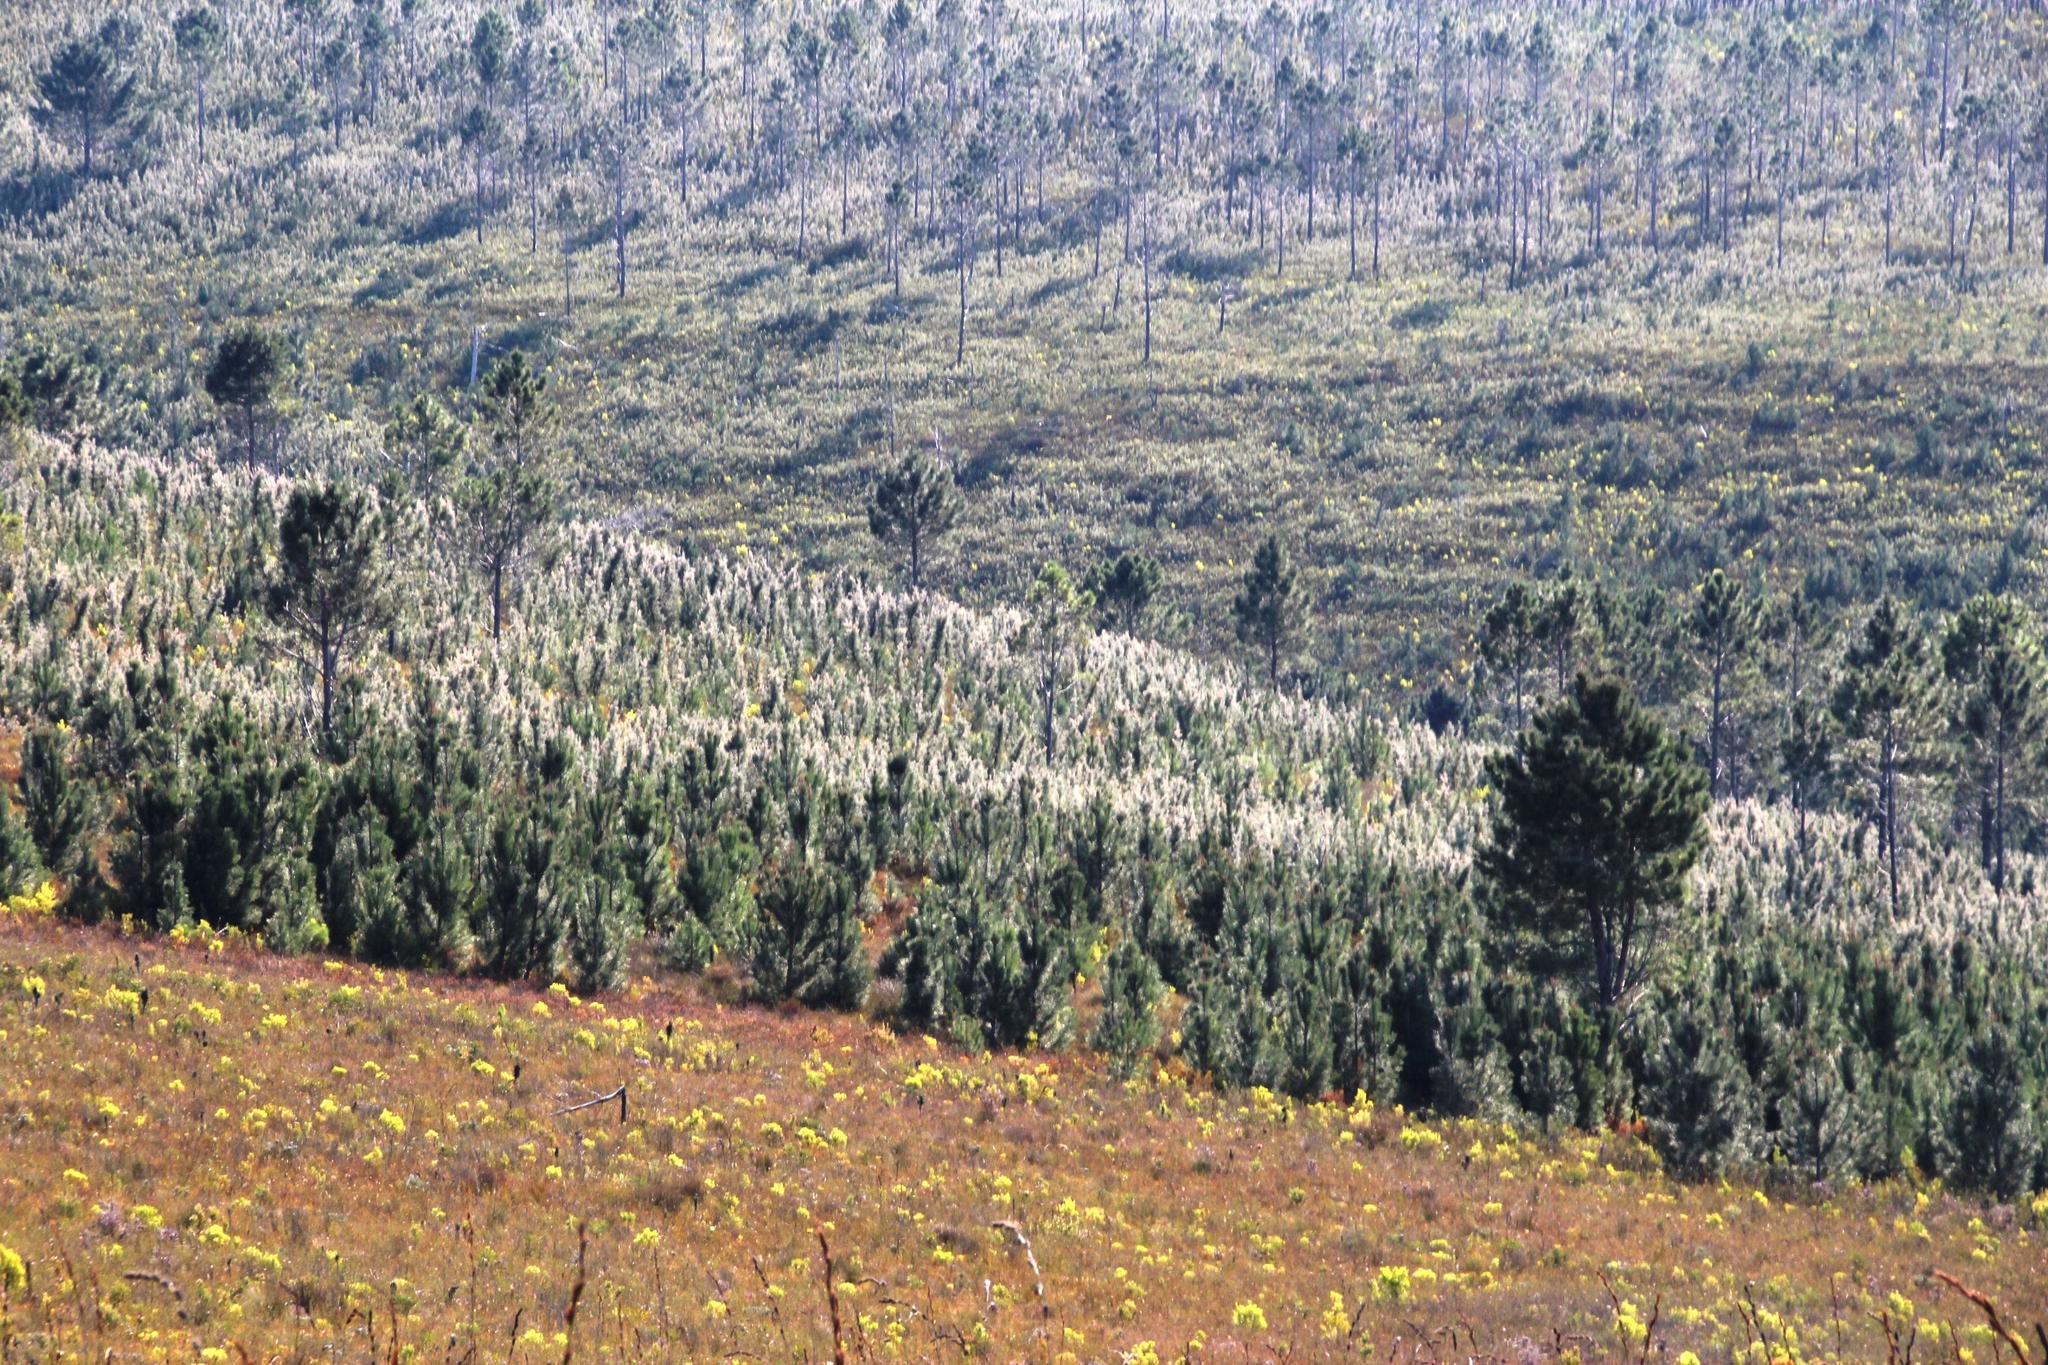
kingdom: Plantae
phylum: Tracheophyta
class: Magnoliopsida
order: Proteales
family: Proteaceae
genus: Hakea
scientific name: Hakea gibbosa
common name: Rock hakea
